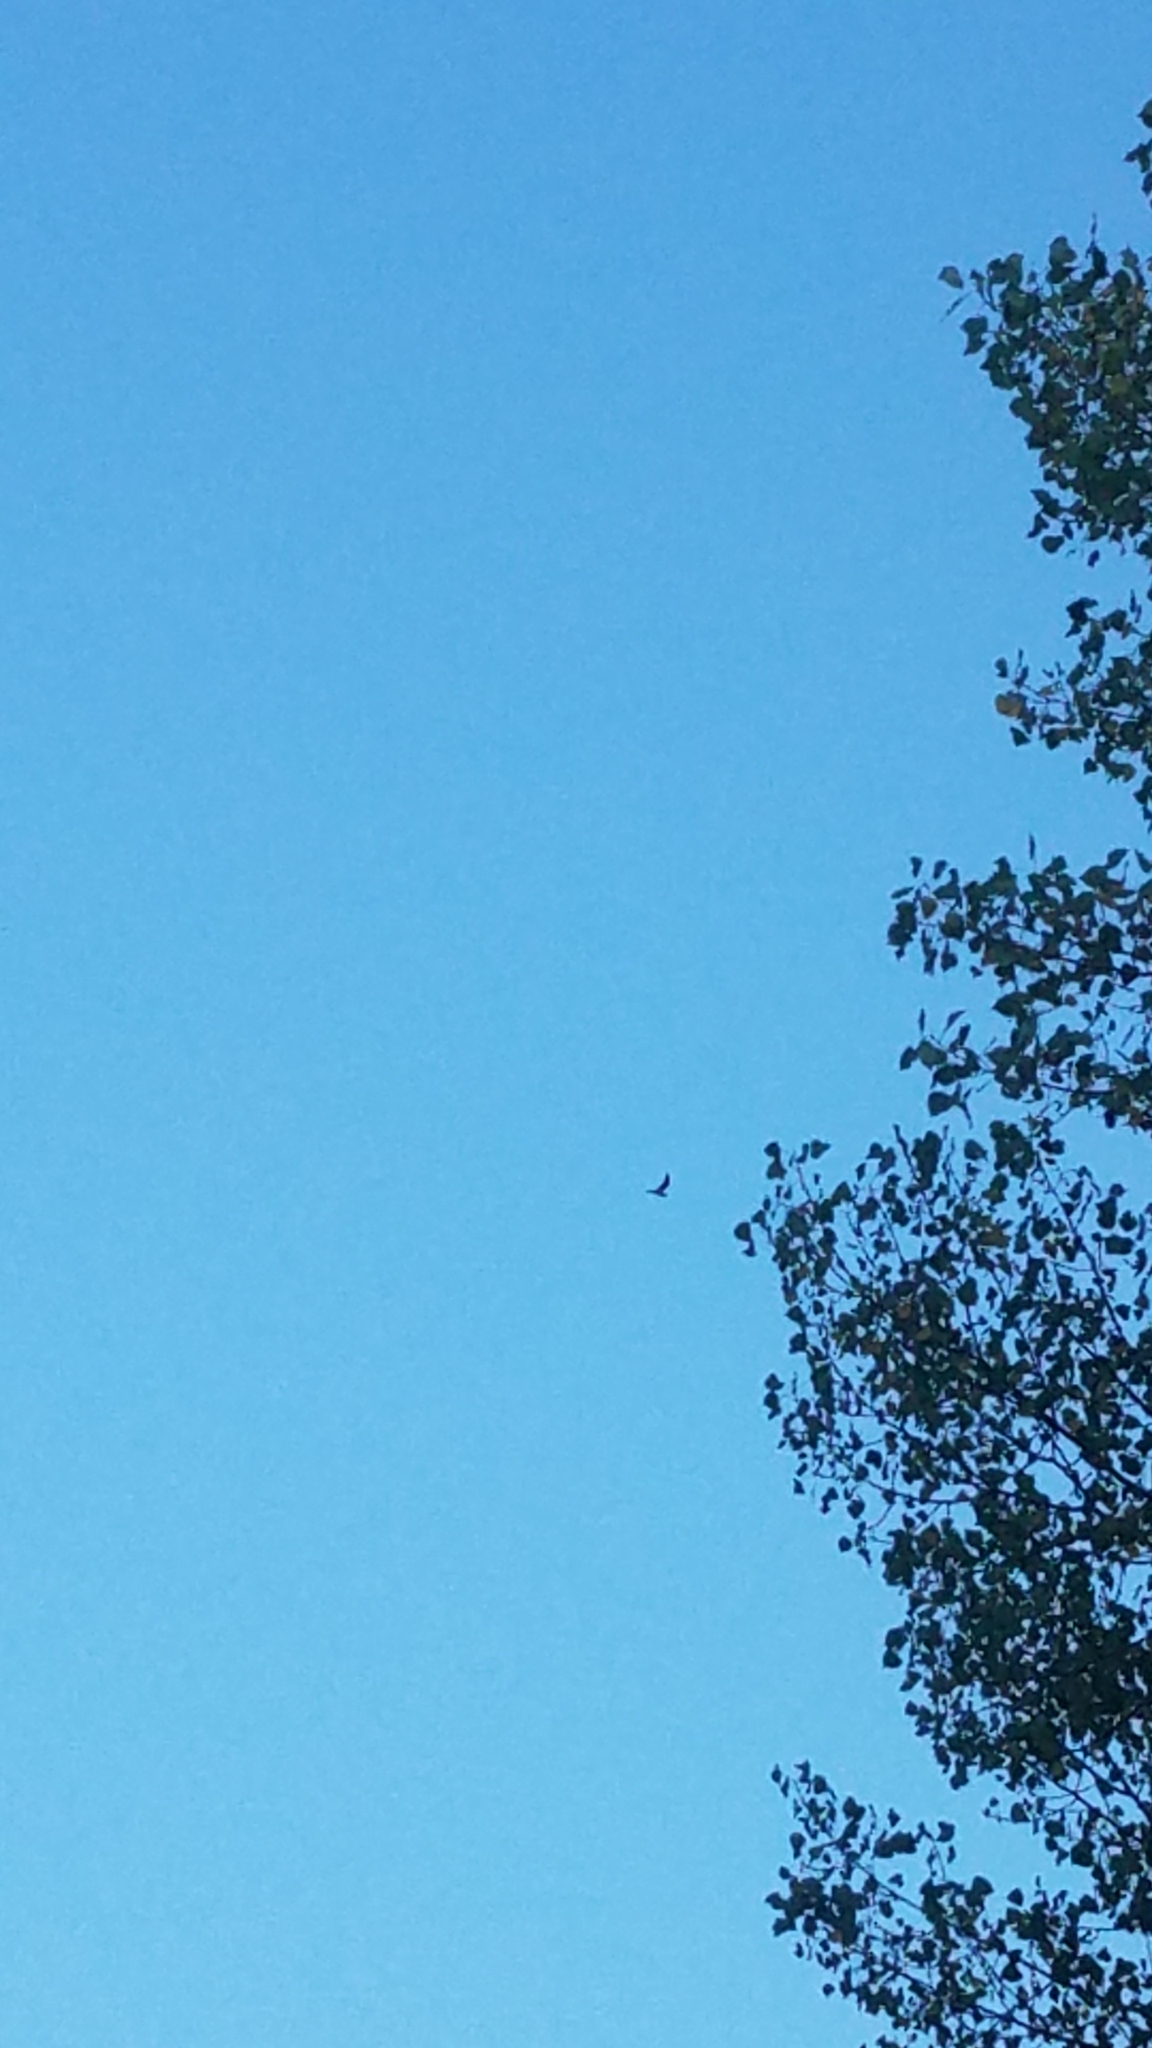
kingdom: Animalia
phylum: Chordata
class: Aves
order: Caprimulgiformes
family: Caprimulgidae
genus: Chordeiles
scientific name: Chordeiles minor
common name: Common nighthawk
